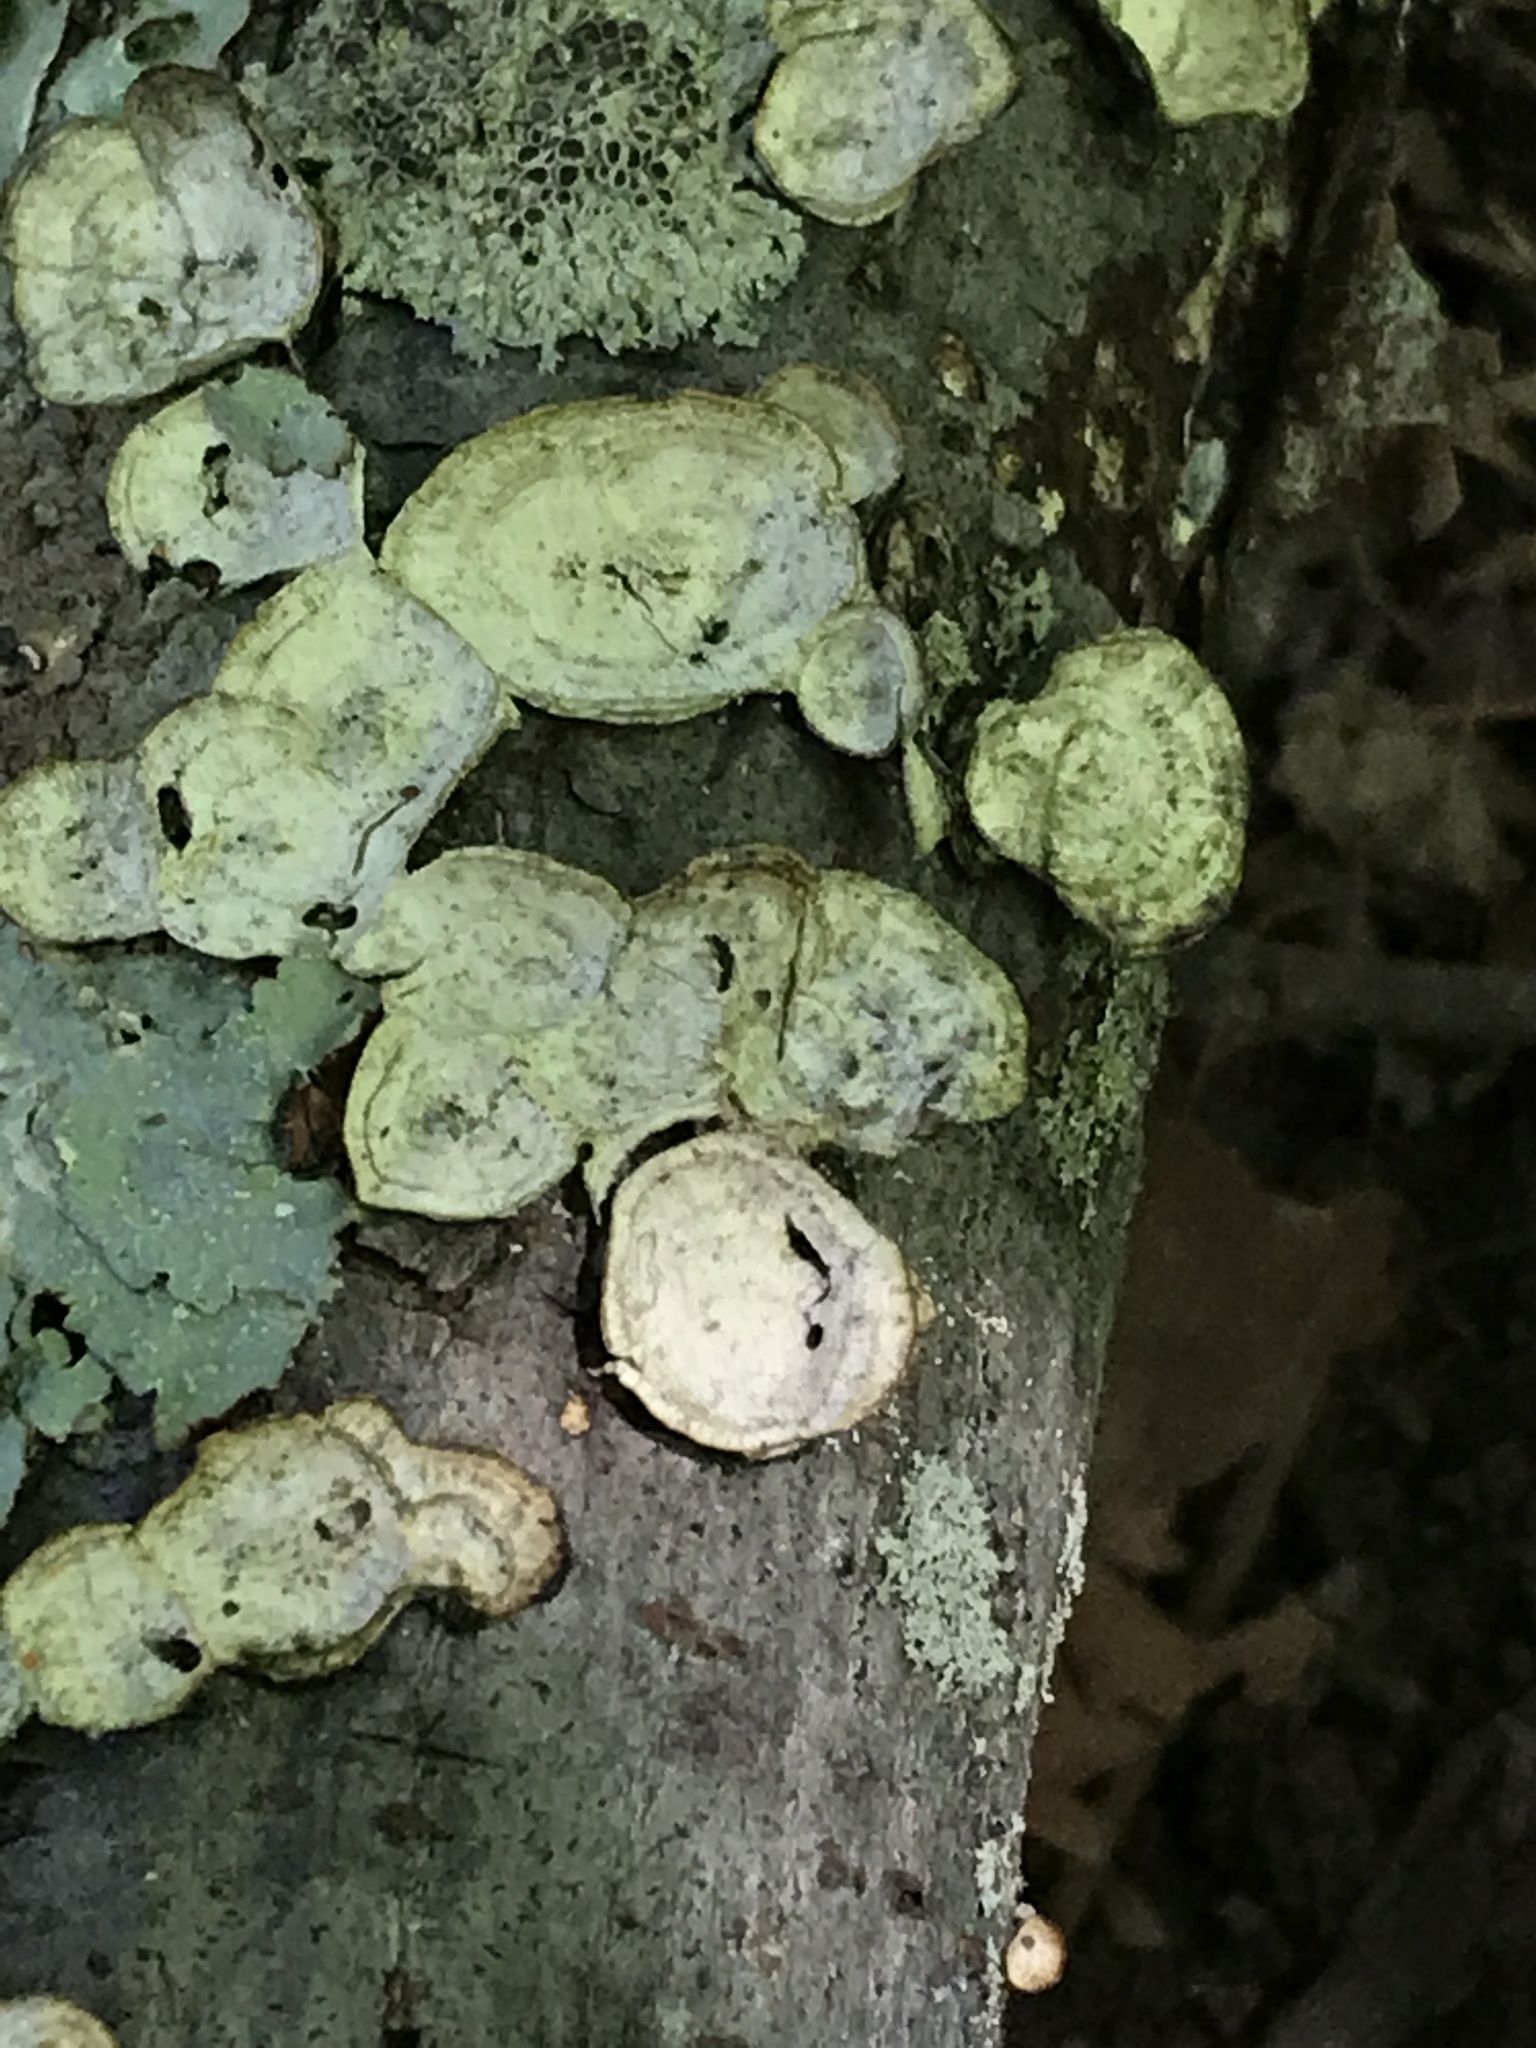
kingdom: Fungi
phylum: Basidiomycota
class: Agaricomycetes
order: Polyporales
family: Polyporaceae
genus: Poronidulus
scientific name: Poronidulus conchifer
